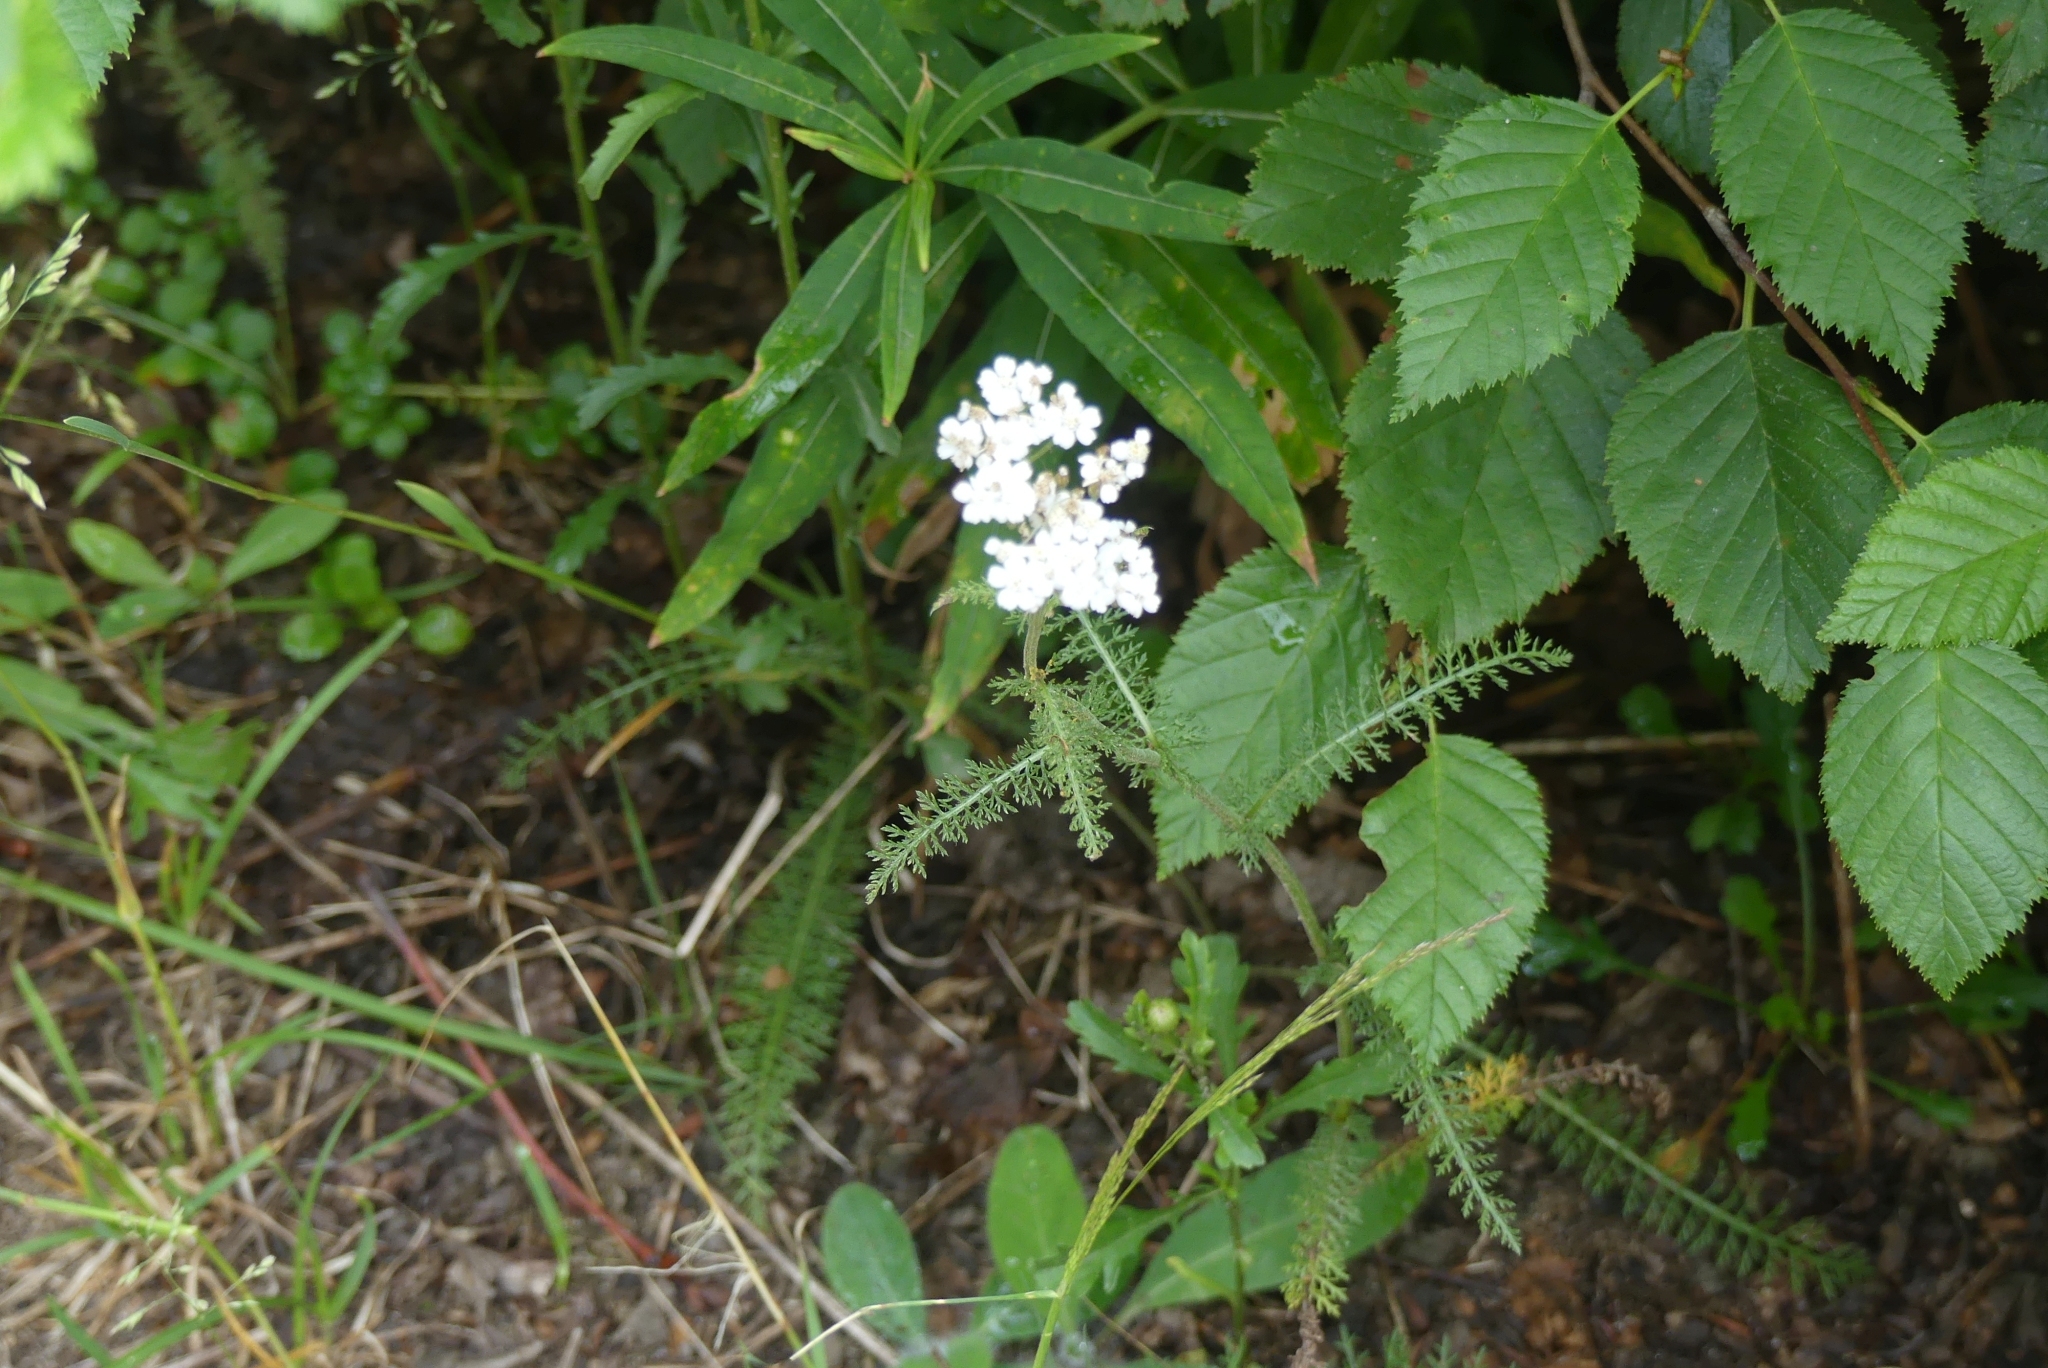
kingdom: Plantae
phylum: Tracheophyta
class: Magnoliopsida
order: Asterales
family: Asteraceae
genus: Achillea
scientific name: Achillea millefolium
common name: Yarrow
